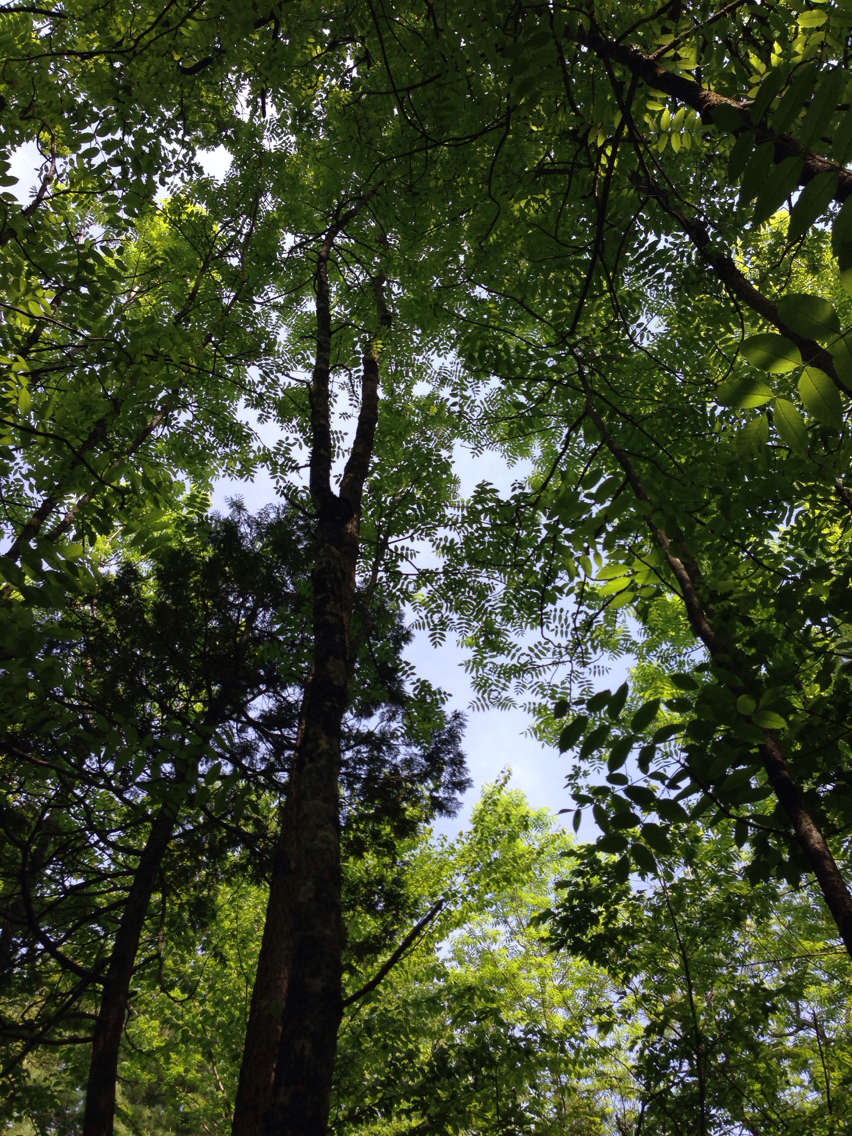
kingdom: Plantae
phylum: Tracheophyta
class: Magnoliopsida
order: Lamiales
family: Oleaceae
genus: Fraxinus
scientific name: Fraxinus nigra
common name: Black ash
